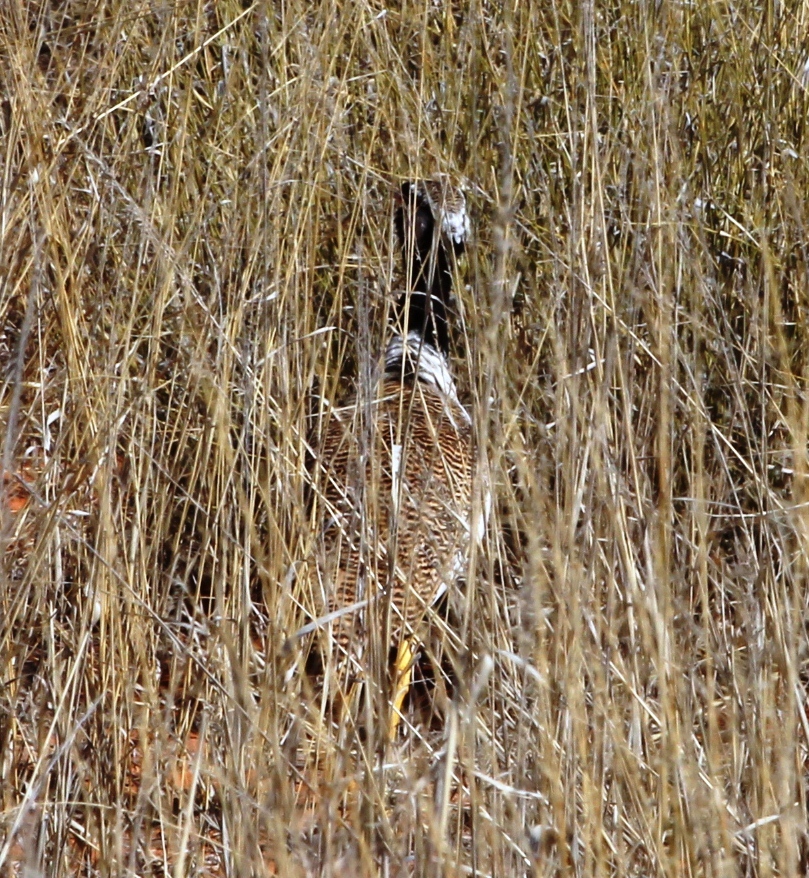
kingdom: Animalia
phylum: Chordata
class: Aves
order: Otidiformes
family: Otididae
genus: Afrotis
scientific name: Afrotis afraoides
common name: Northern black korhaan
